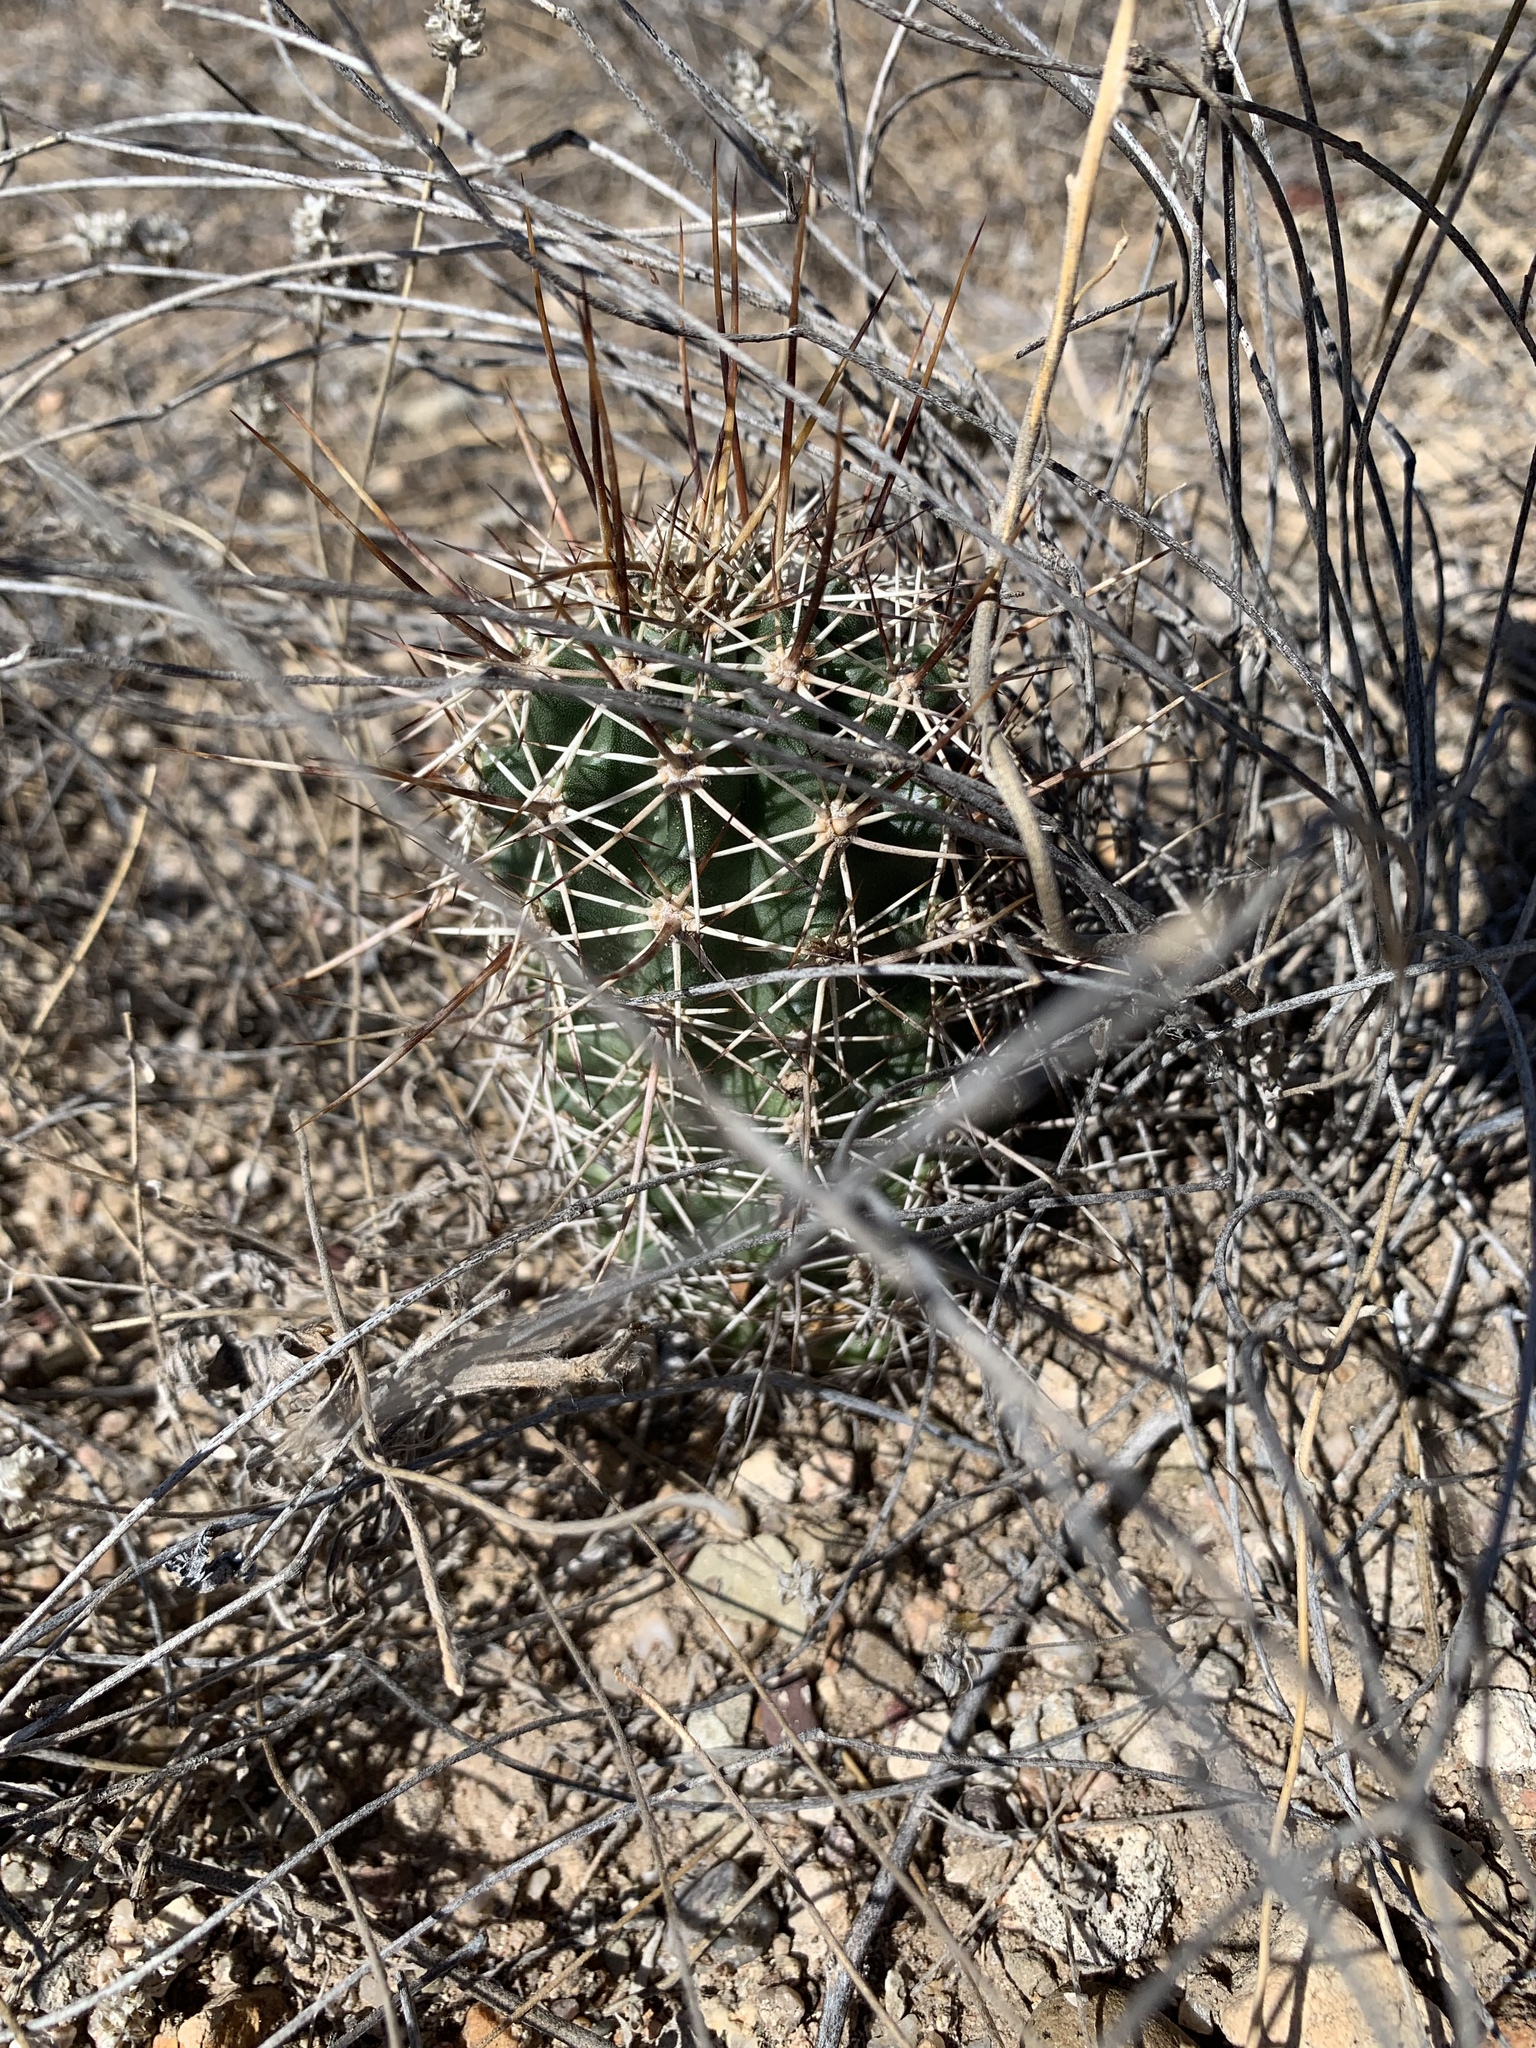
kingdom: Plantae
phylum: Tracheophyta
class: Magnoliopsida
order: Caryophyllales
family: Cactaceae
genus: Echinocereus
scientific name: Echinocereus fasciculatus
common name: Bundle hedgehog
